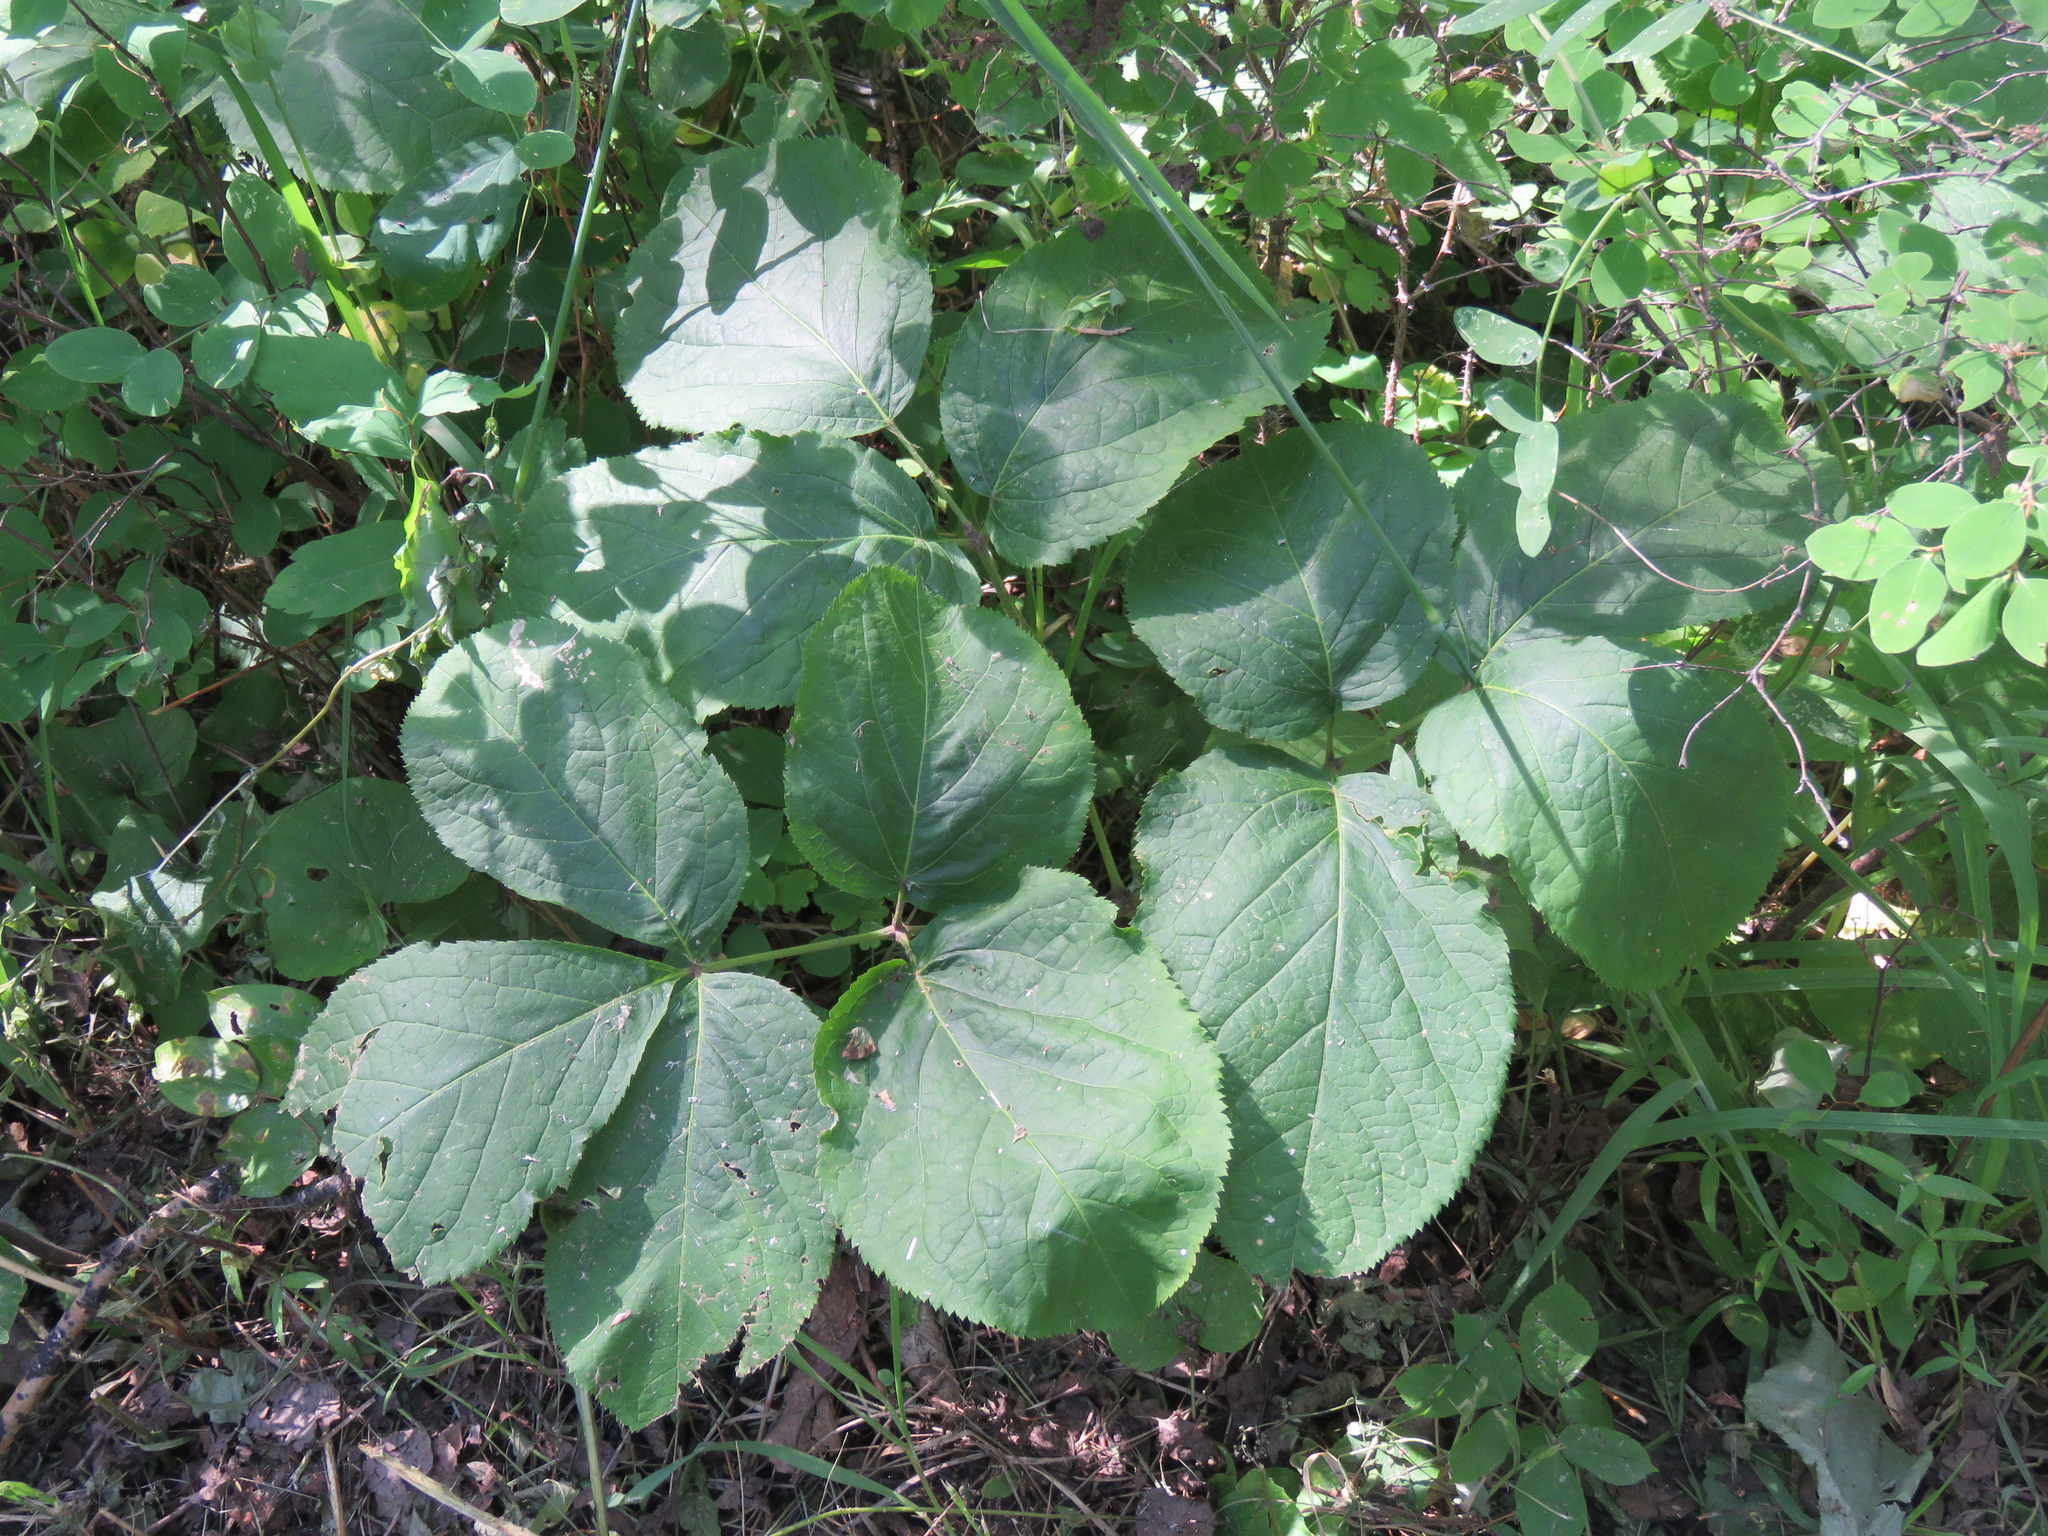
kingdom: Plantae
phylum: Tracheophyta
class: Magnoliopsida
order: Apiales
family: Araliaceae
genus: Aralia
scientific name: Aralia nudicaulis
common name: Wild sarsaparilla
